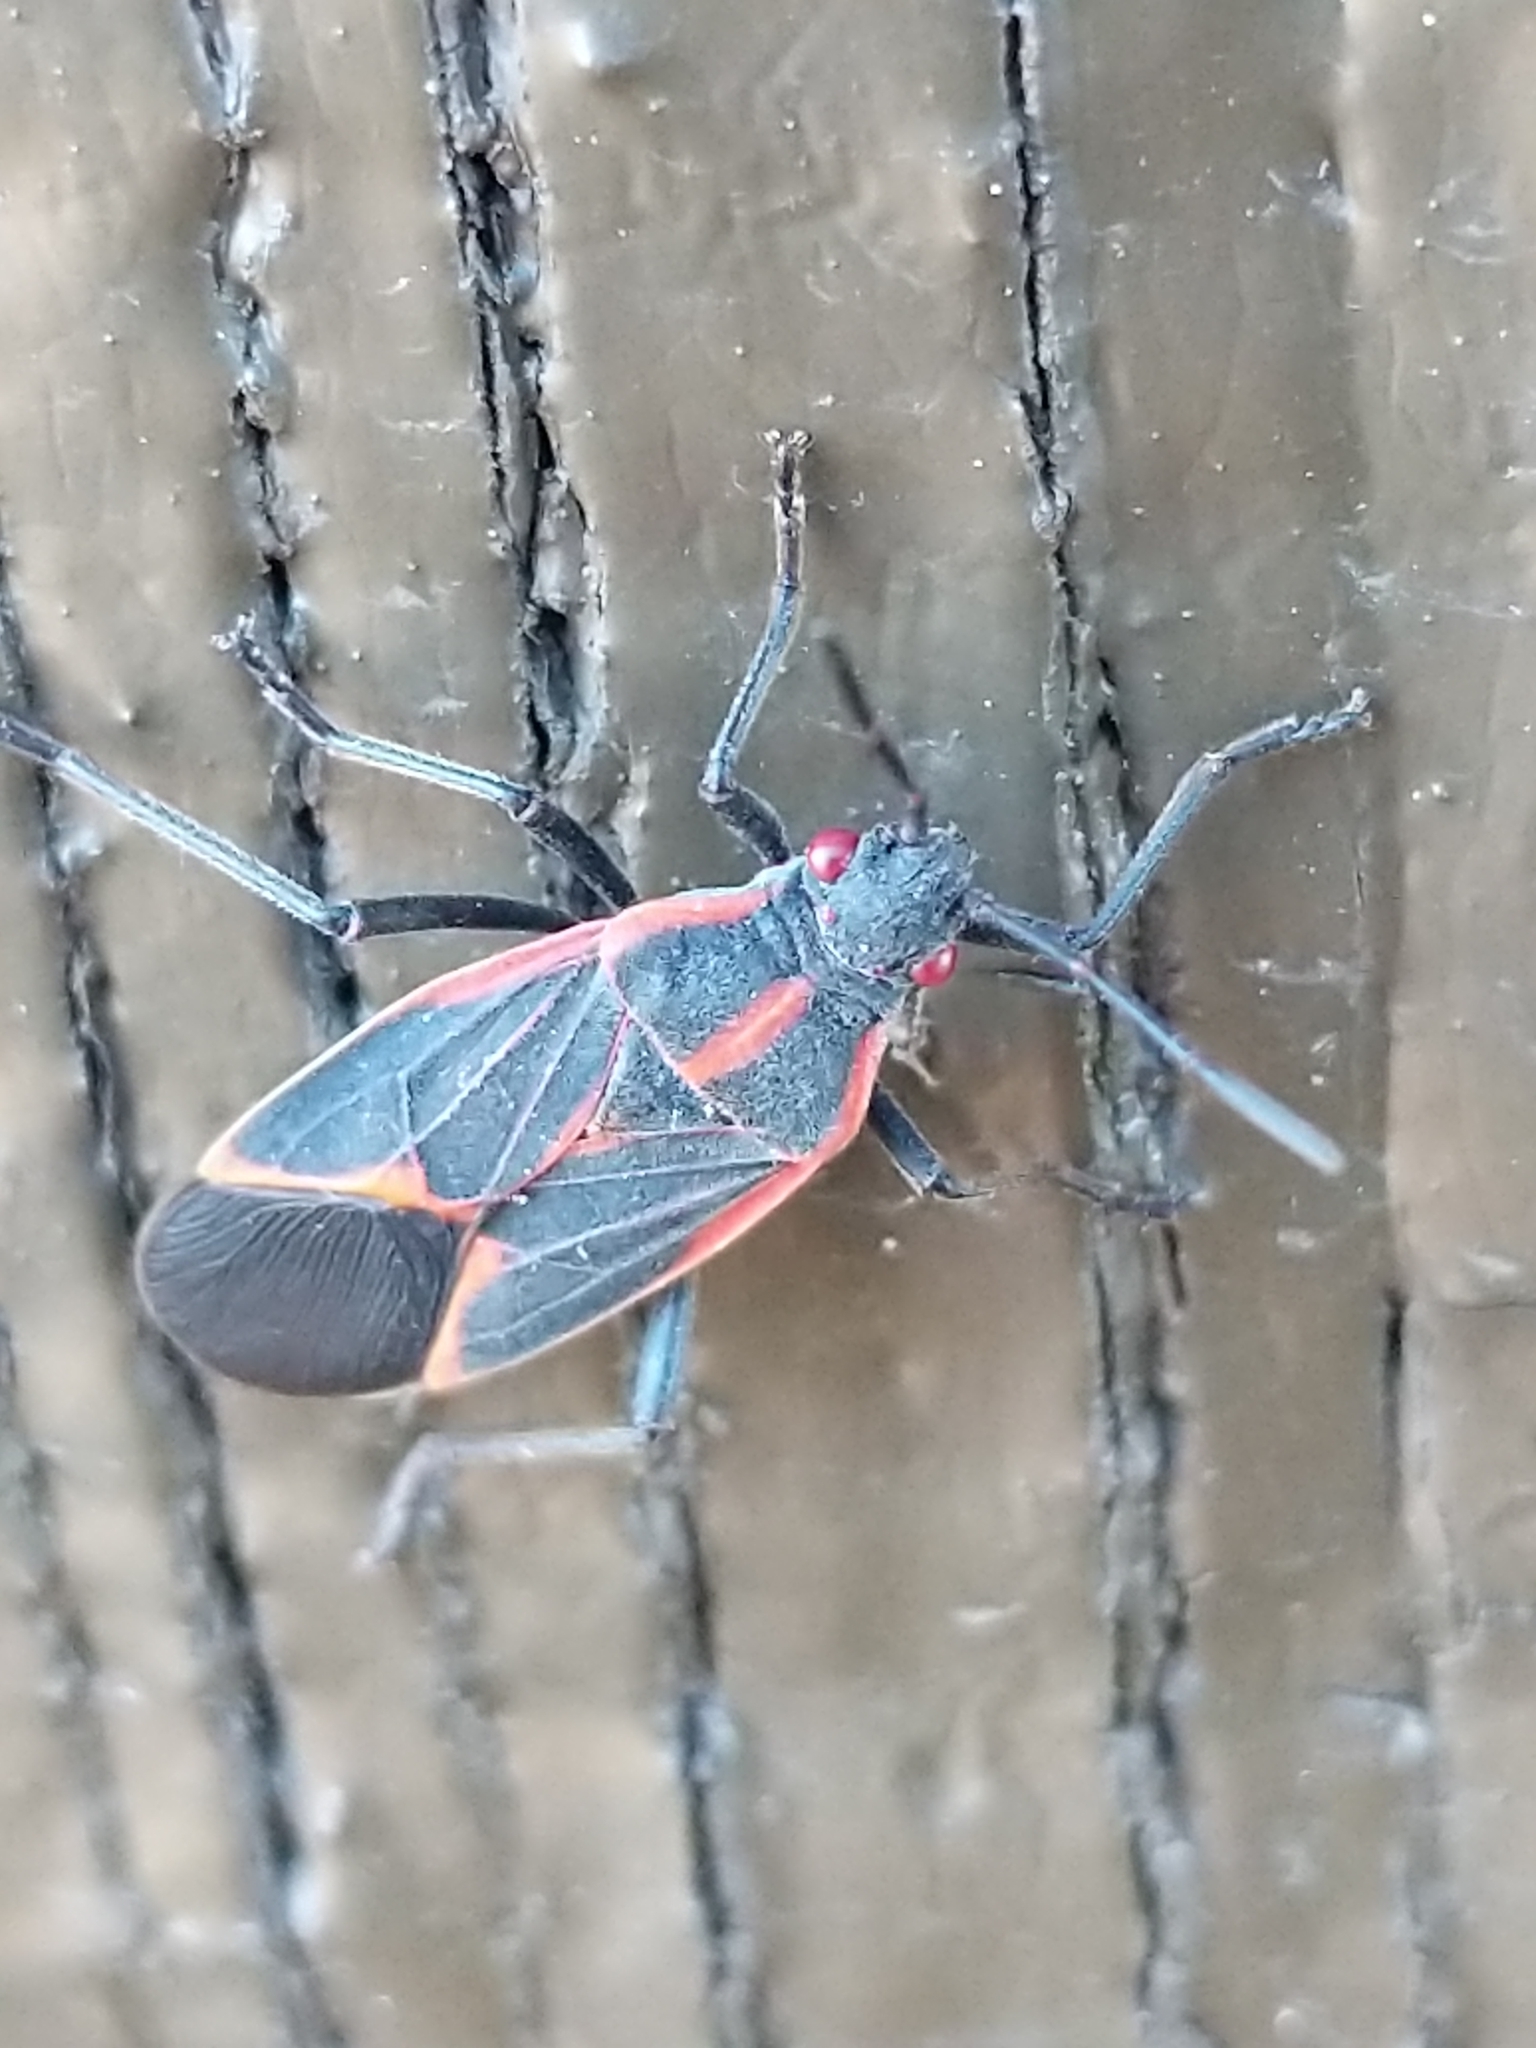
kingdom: Animalia
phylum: Arthropoda
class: Insecta
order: Hemiptera
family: Rhopalidae
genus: Boisea
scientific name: Boisea trivittata
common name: Boxelder bug
